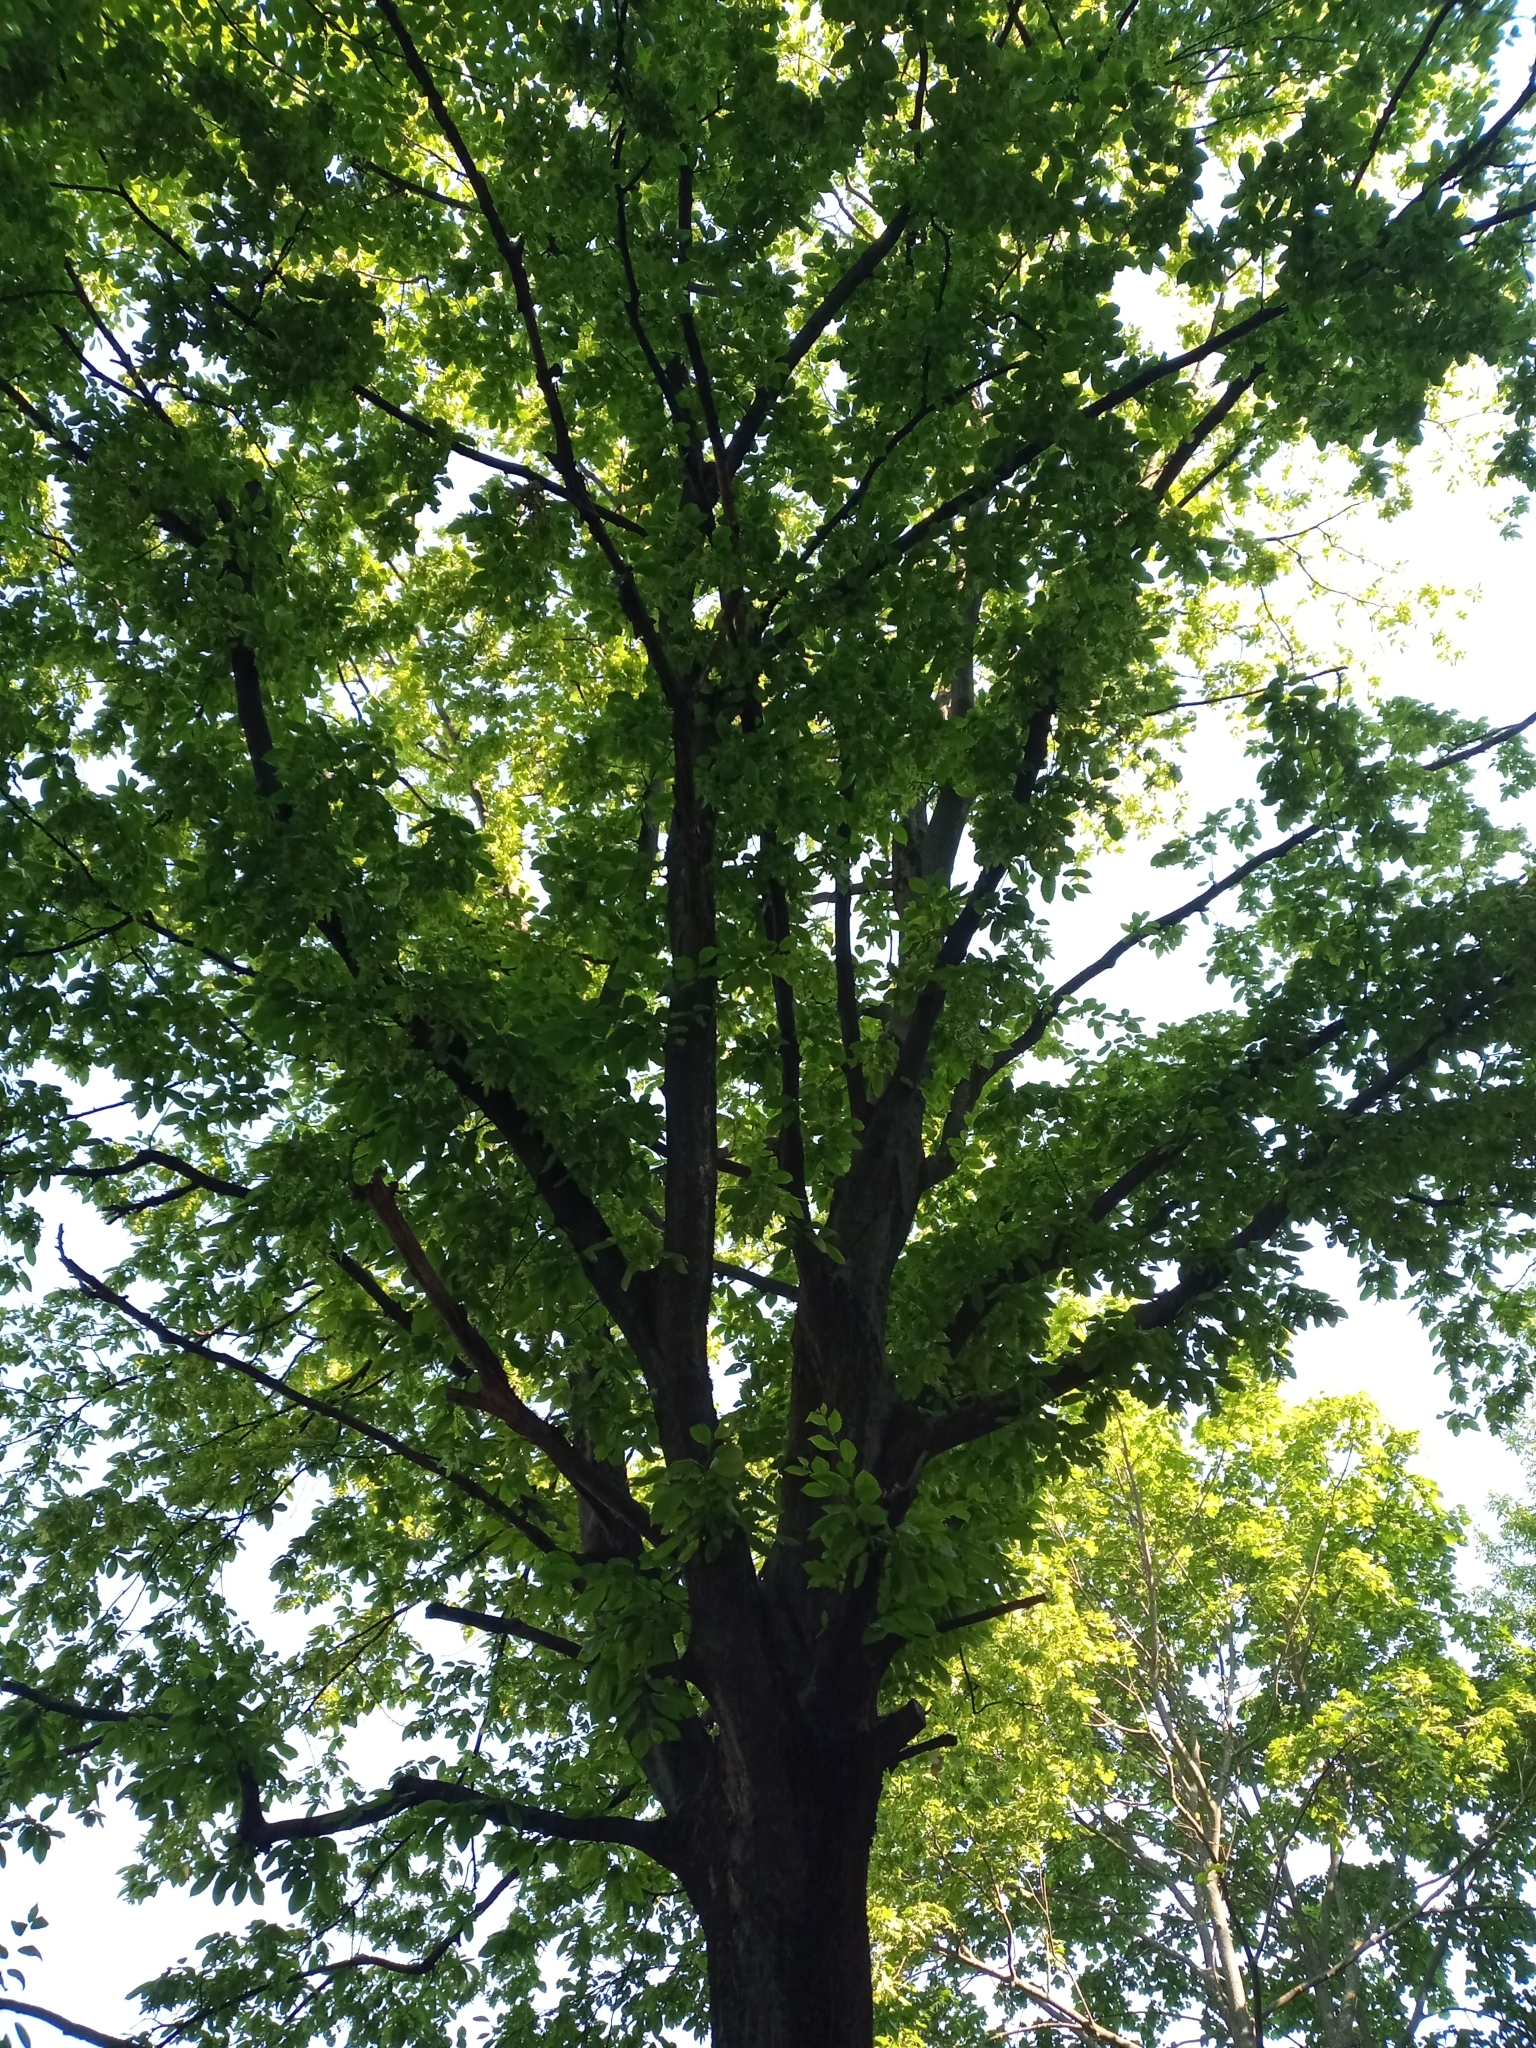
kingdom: Plantae
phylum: Tracheophyta
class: Magnoliopsida
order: Fagales
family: Betulaceae
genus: Carpinus
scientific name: Carpinus betulus
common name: Hornbeam
